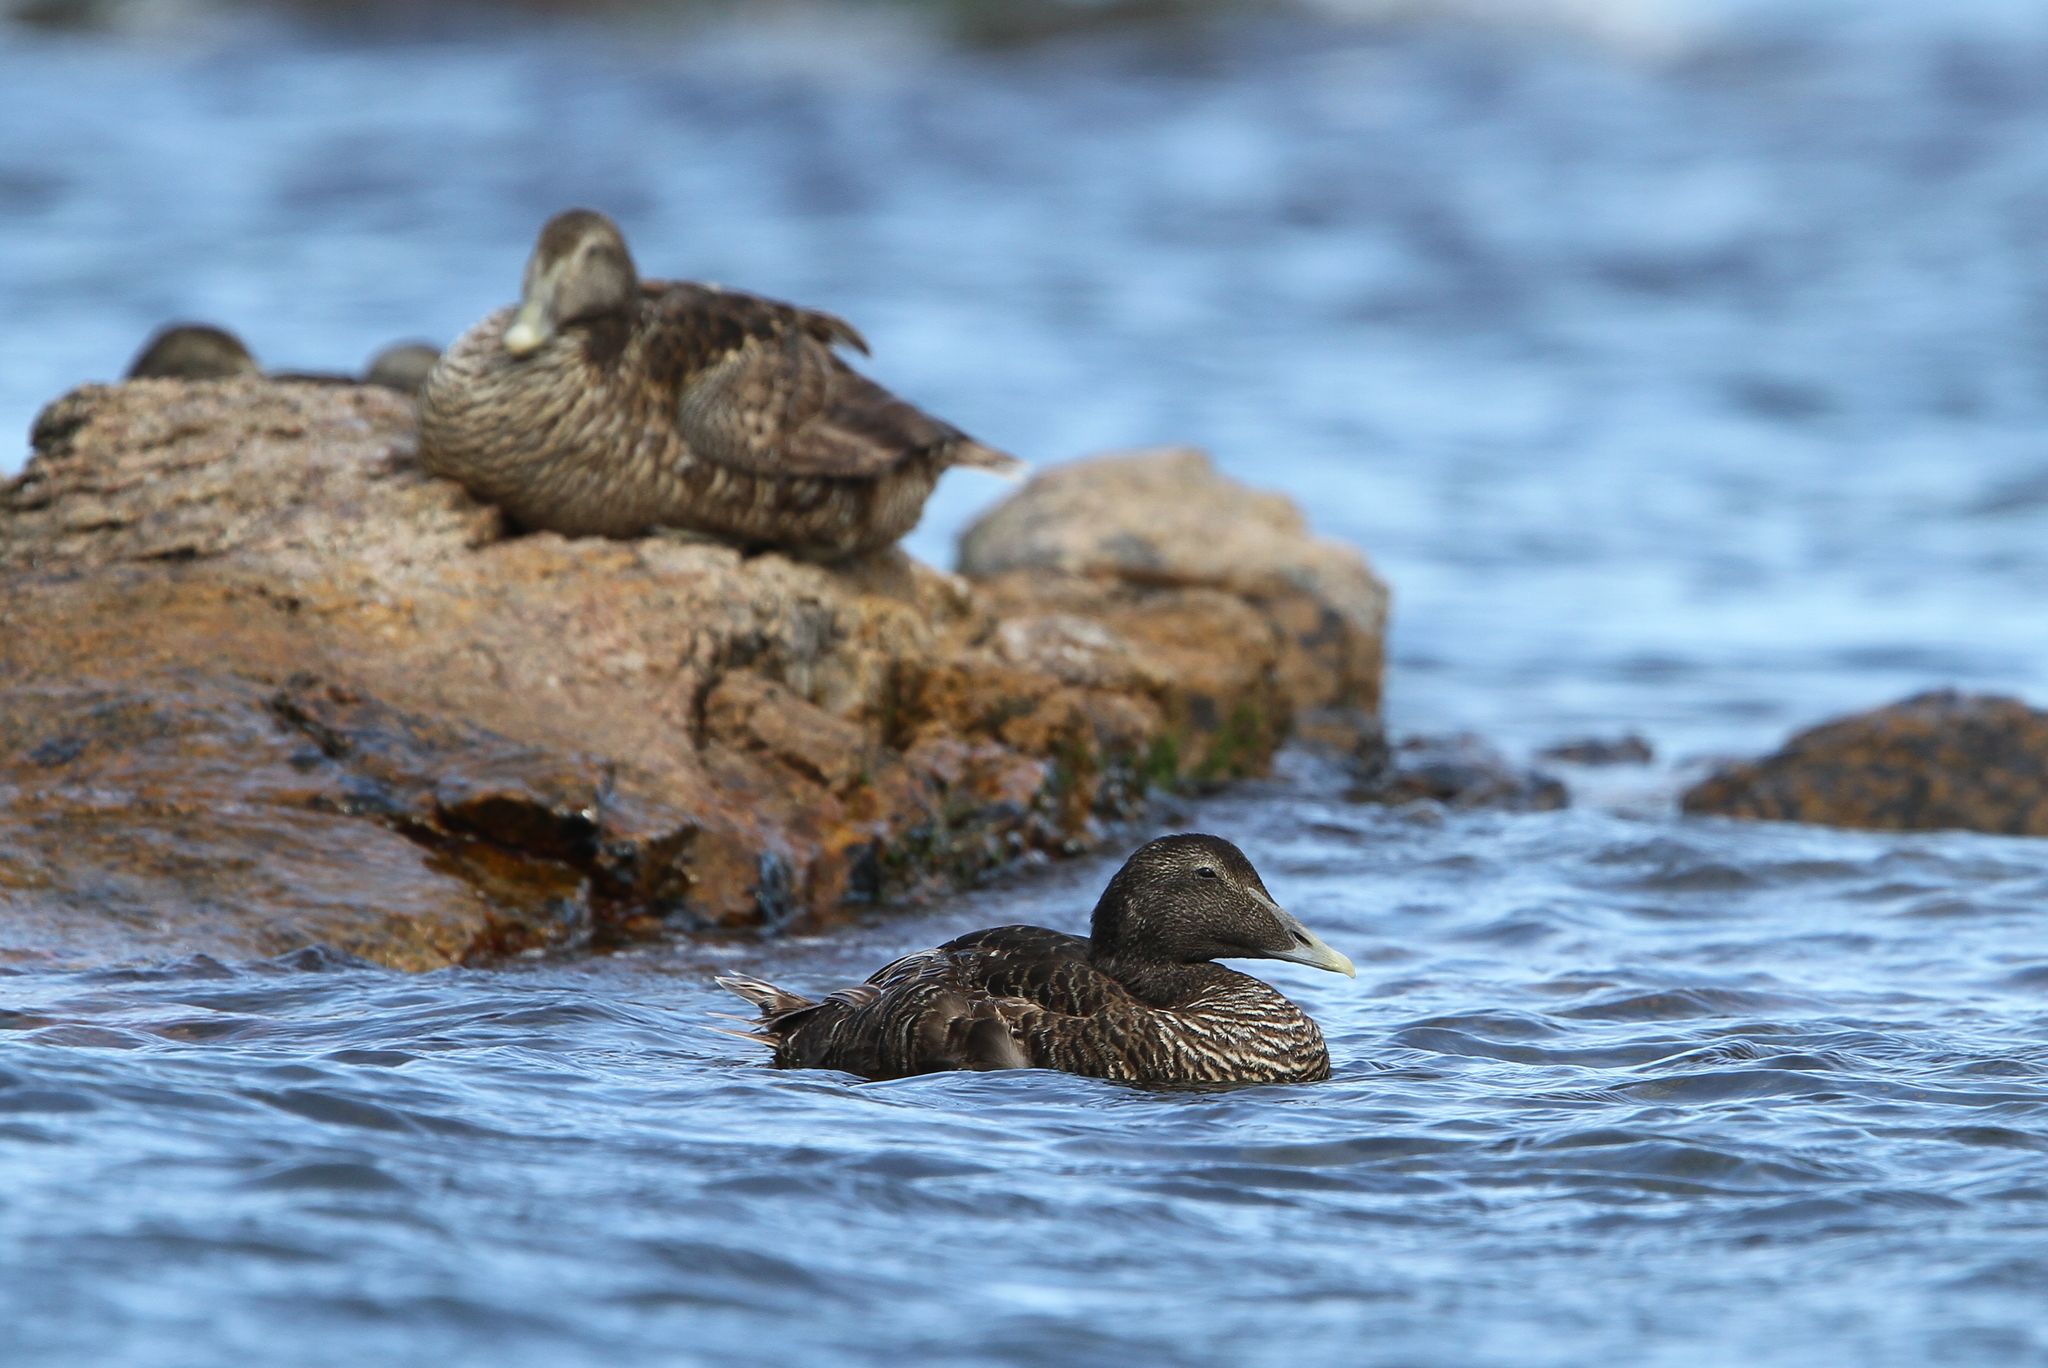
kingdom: Animalia
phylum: Chordata
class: Aves
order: Anseriformes
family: Anatidae
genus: Somateria
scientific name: Somateria mollissima
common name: Common eider
